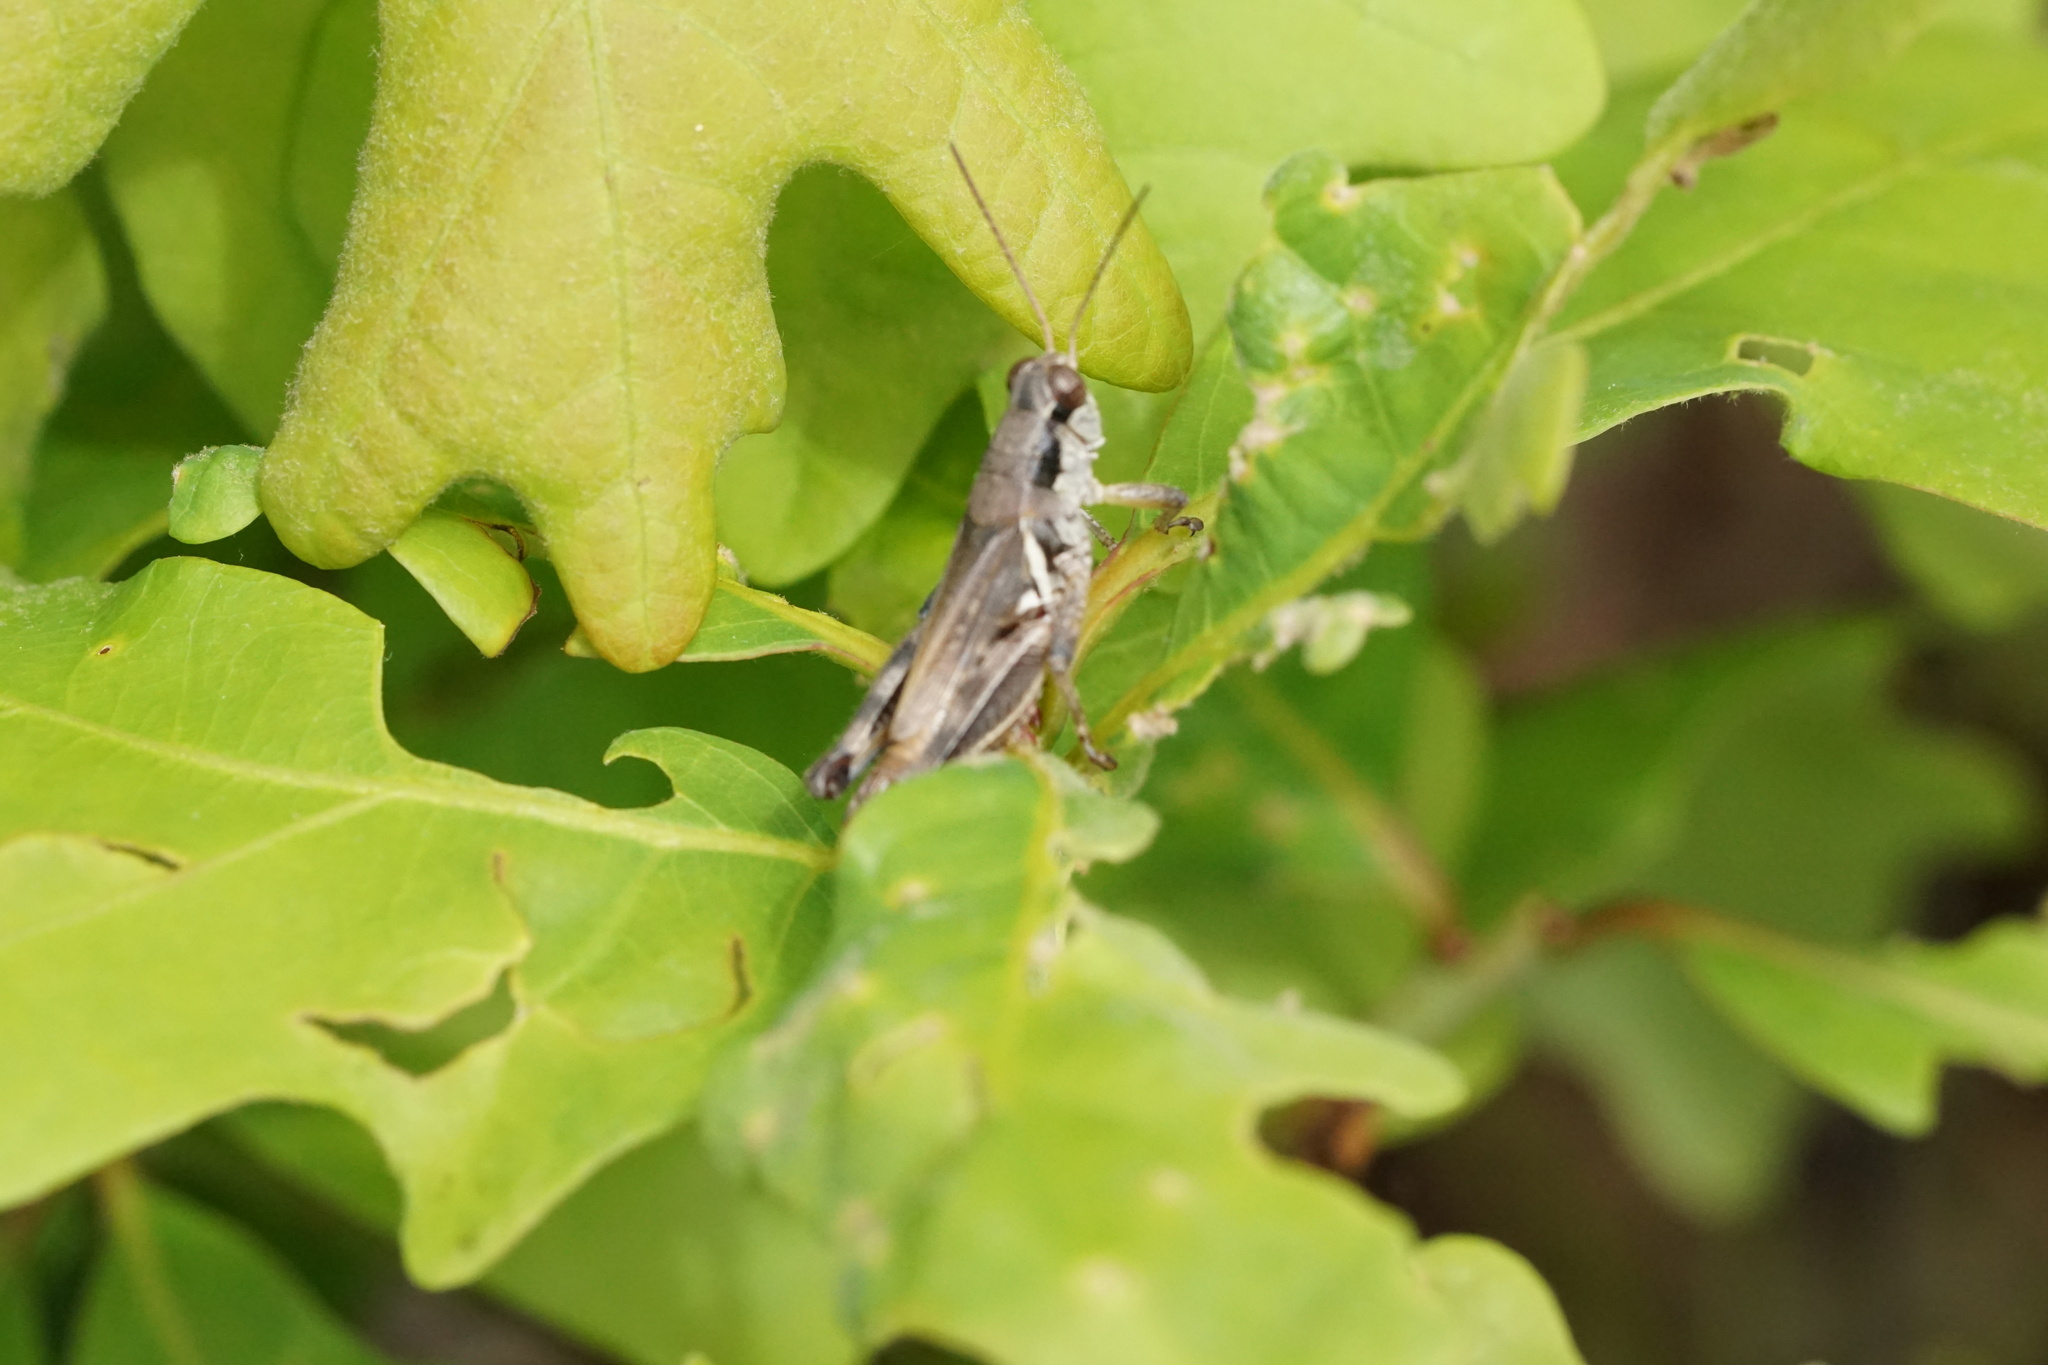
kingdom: Animalia
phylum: Arthropoda
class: Insecta
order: Orthoptera
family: Acrididae
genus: Melanoplus
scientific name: Melanoplus fasciatus
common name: Huckleberry locust
